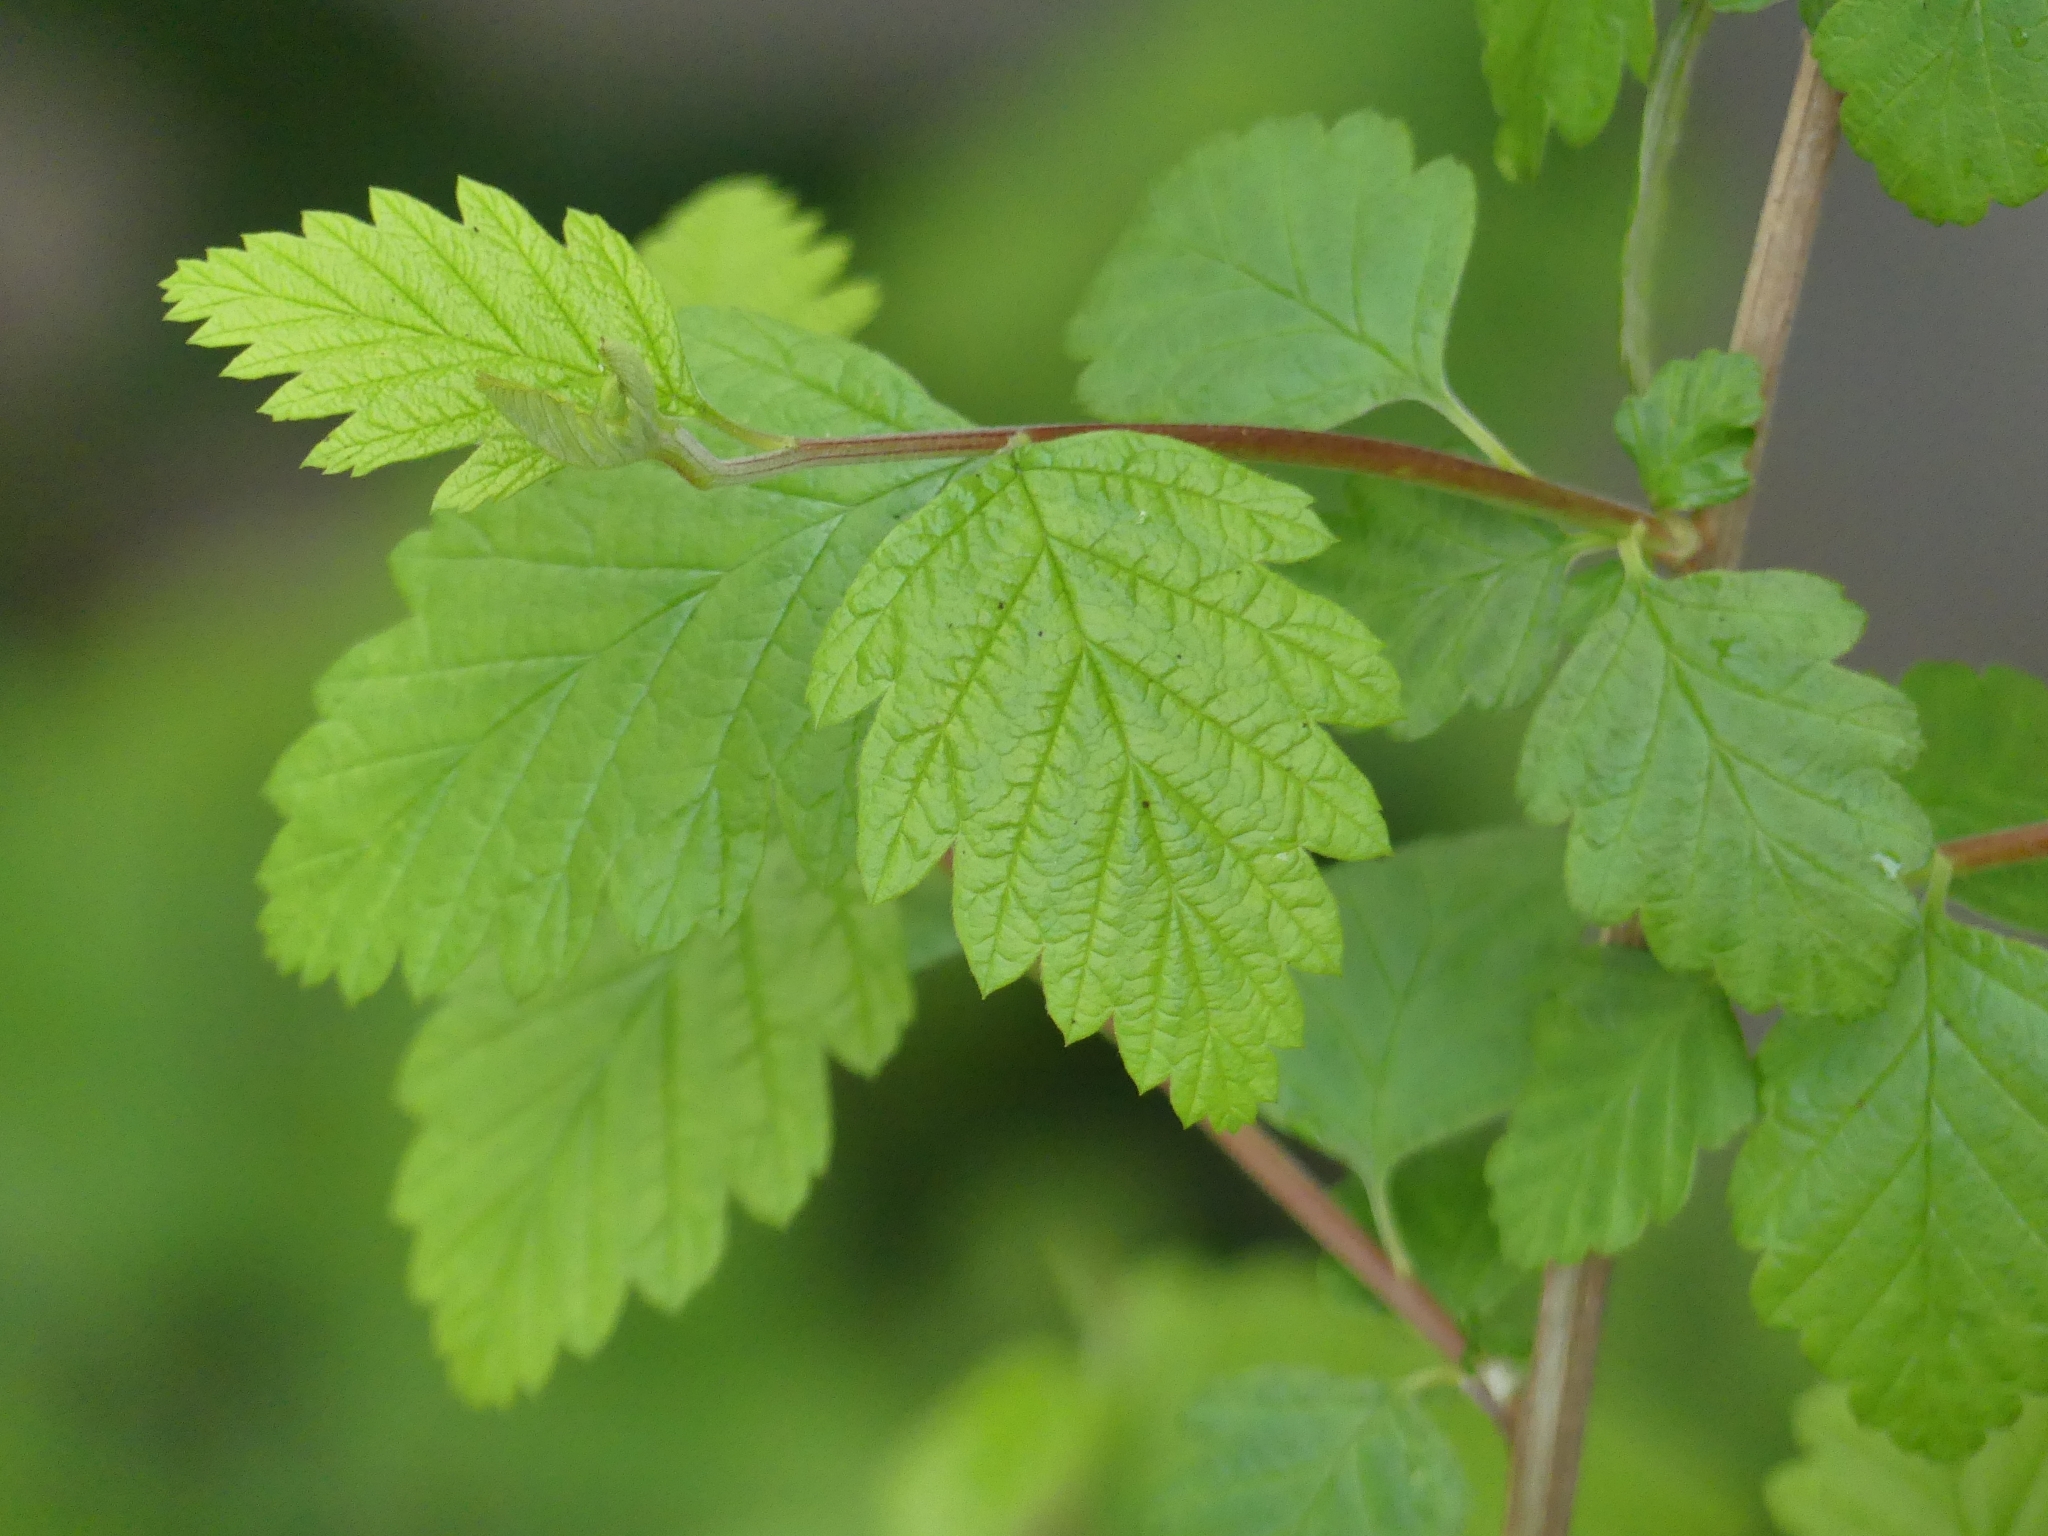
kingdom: Plantae
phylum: Tracheophyta
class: Magnoliopsida
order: Rosales
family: Rosaceae
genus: Holodiscus
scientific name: Holodiscus discolor
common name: Oceanspray
